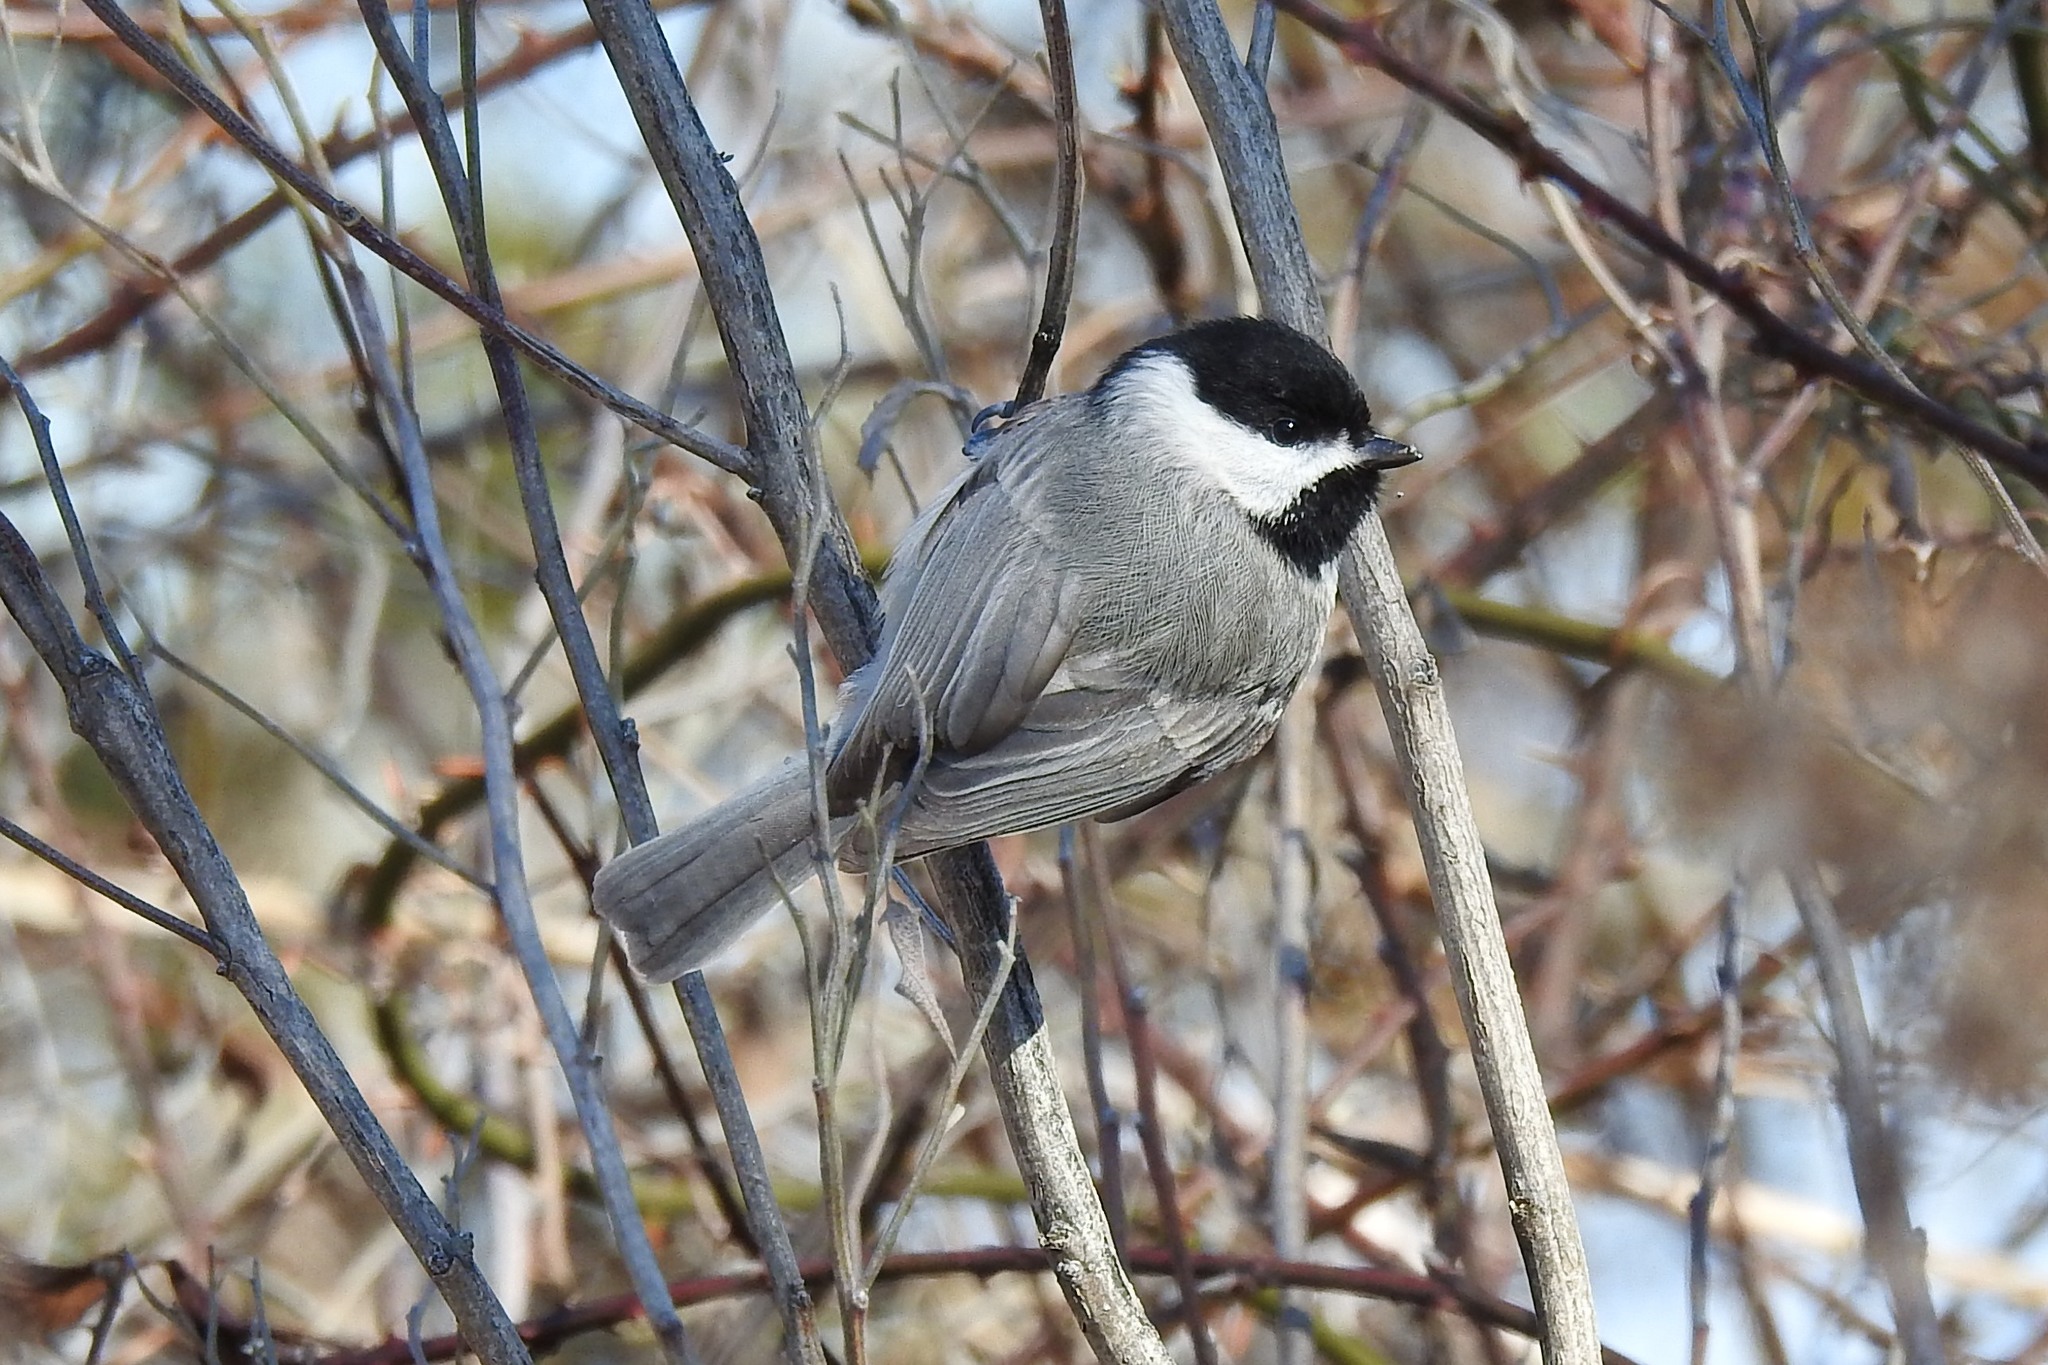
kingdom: Animalia
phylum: Chordata
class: Aves
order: Passeriformes
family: Paridae
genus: Poecile
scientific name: Poecile carolinensis
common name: Carolina chickadee
